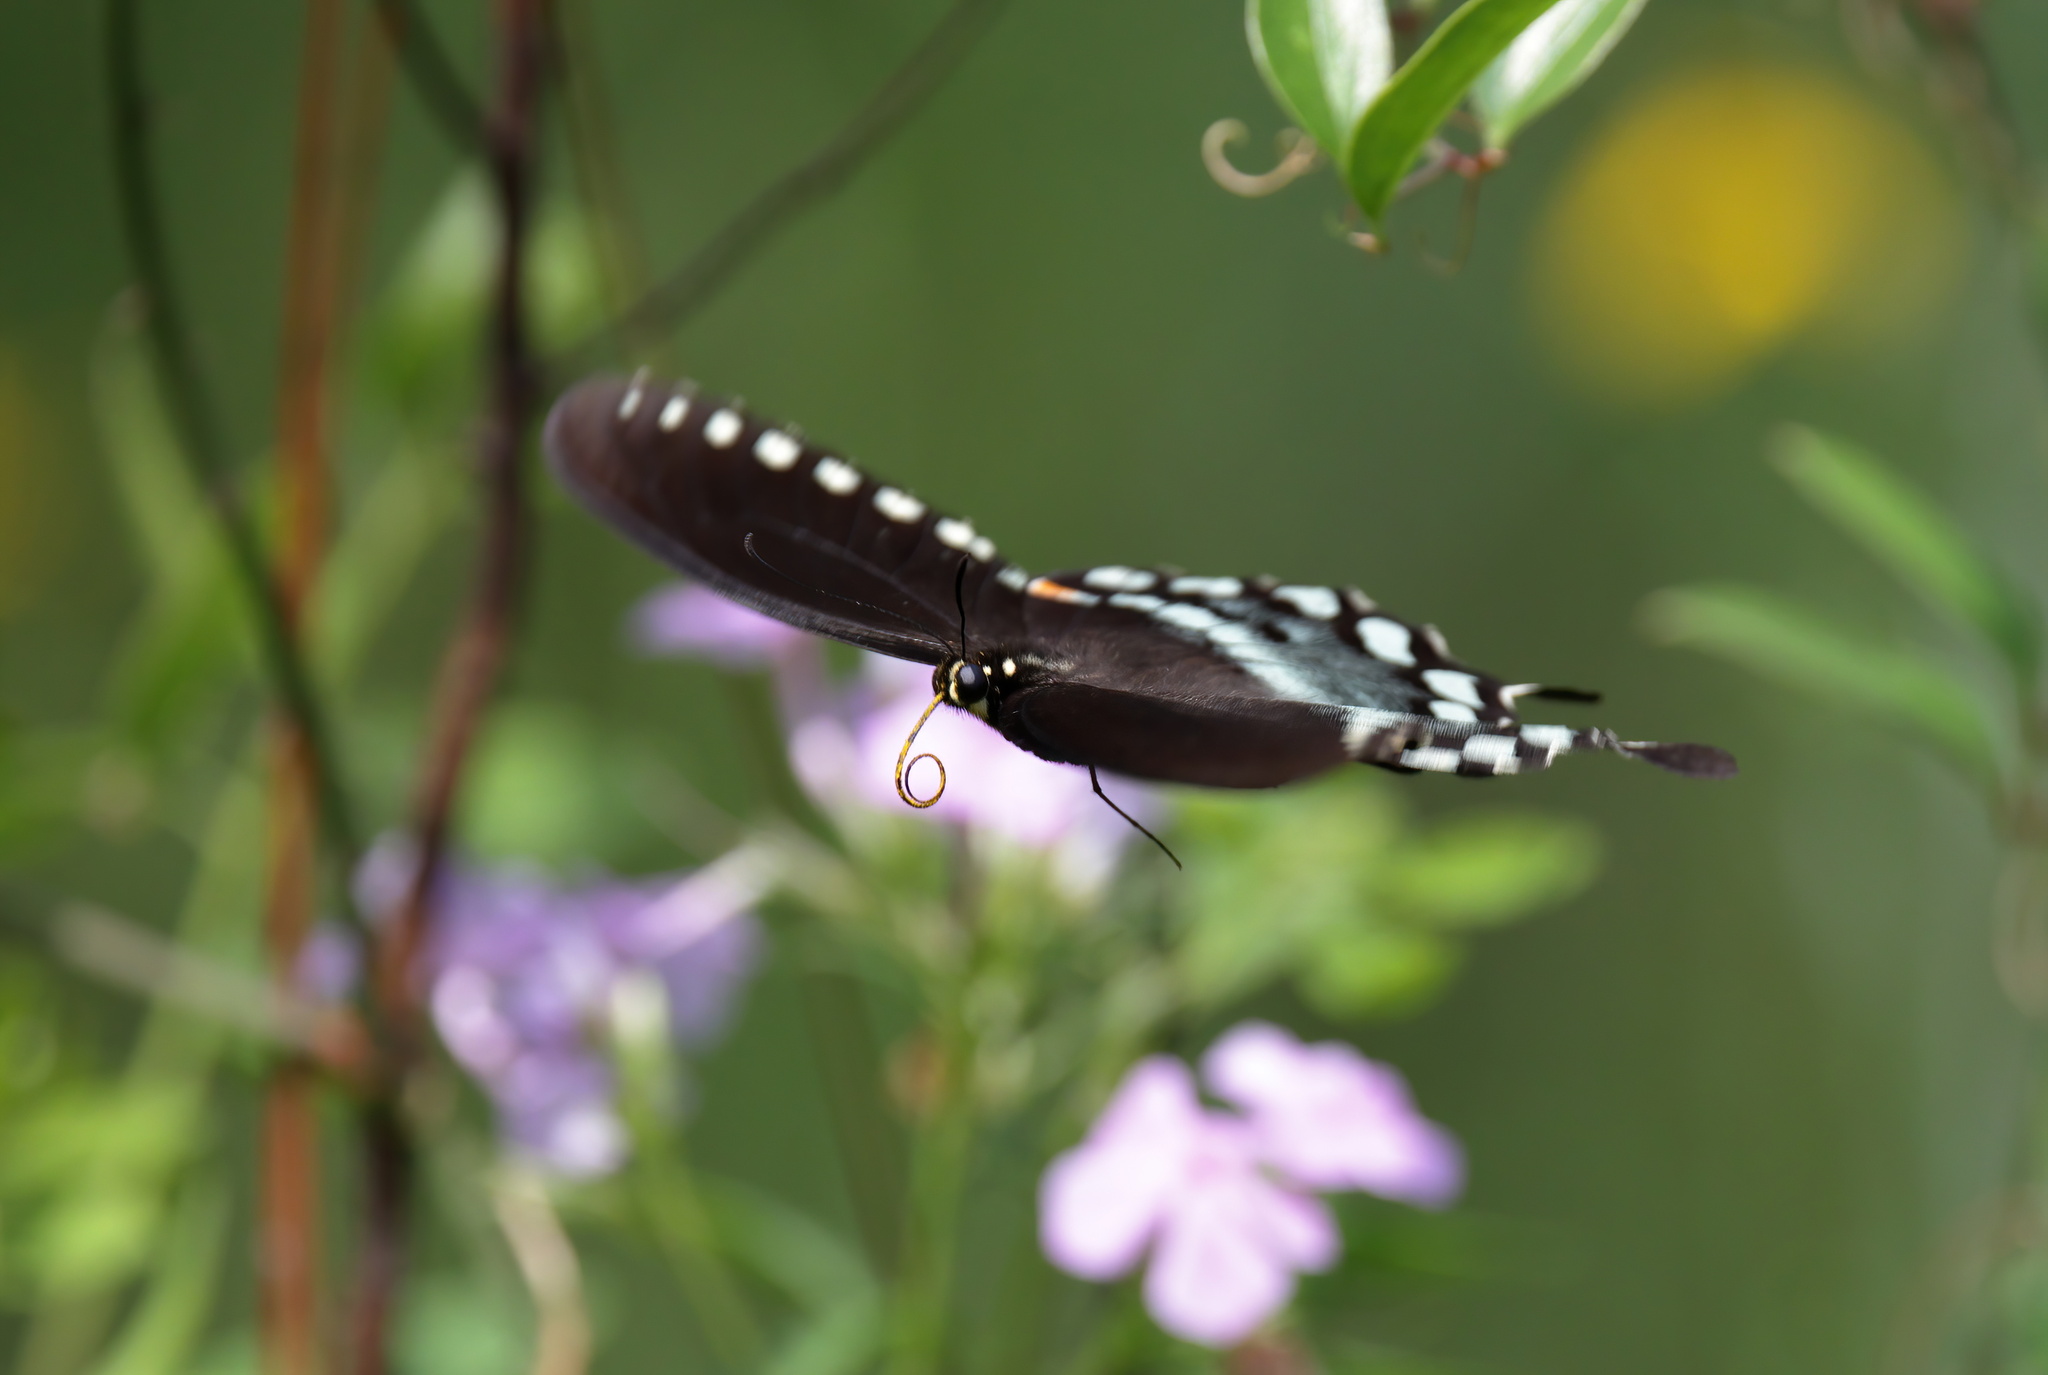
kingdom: Animalia
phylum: Arthropoda
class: Insecta
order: Lepidoptera
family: Papilionidae
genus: Papilio
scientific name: Papilio troilus
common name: Spicebush swallowtail
